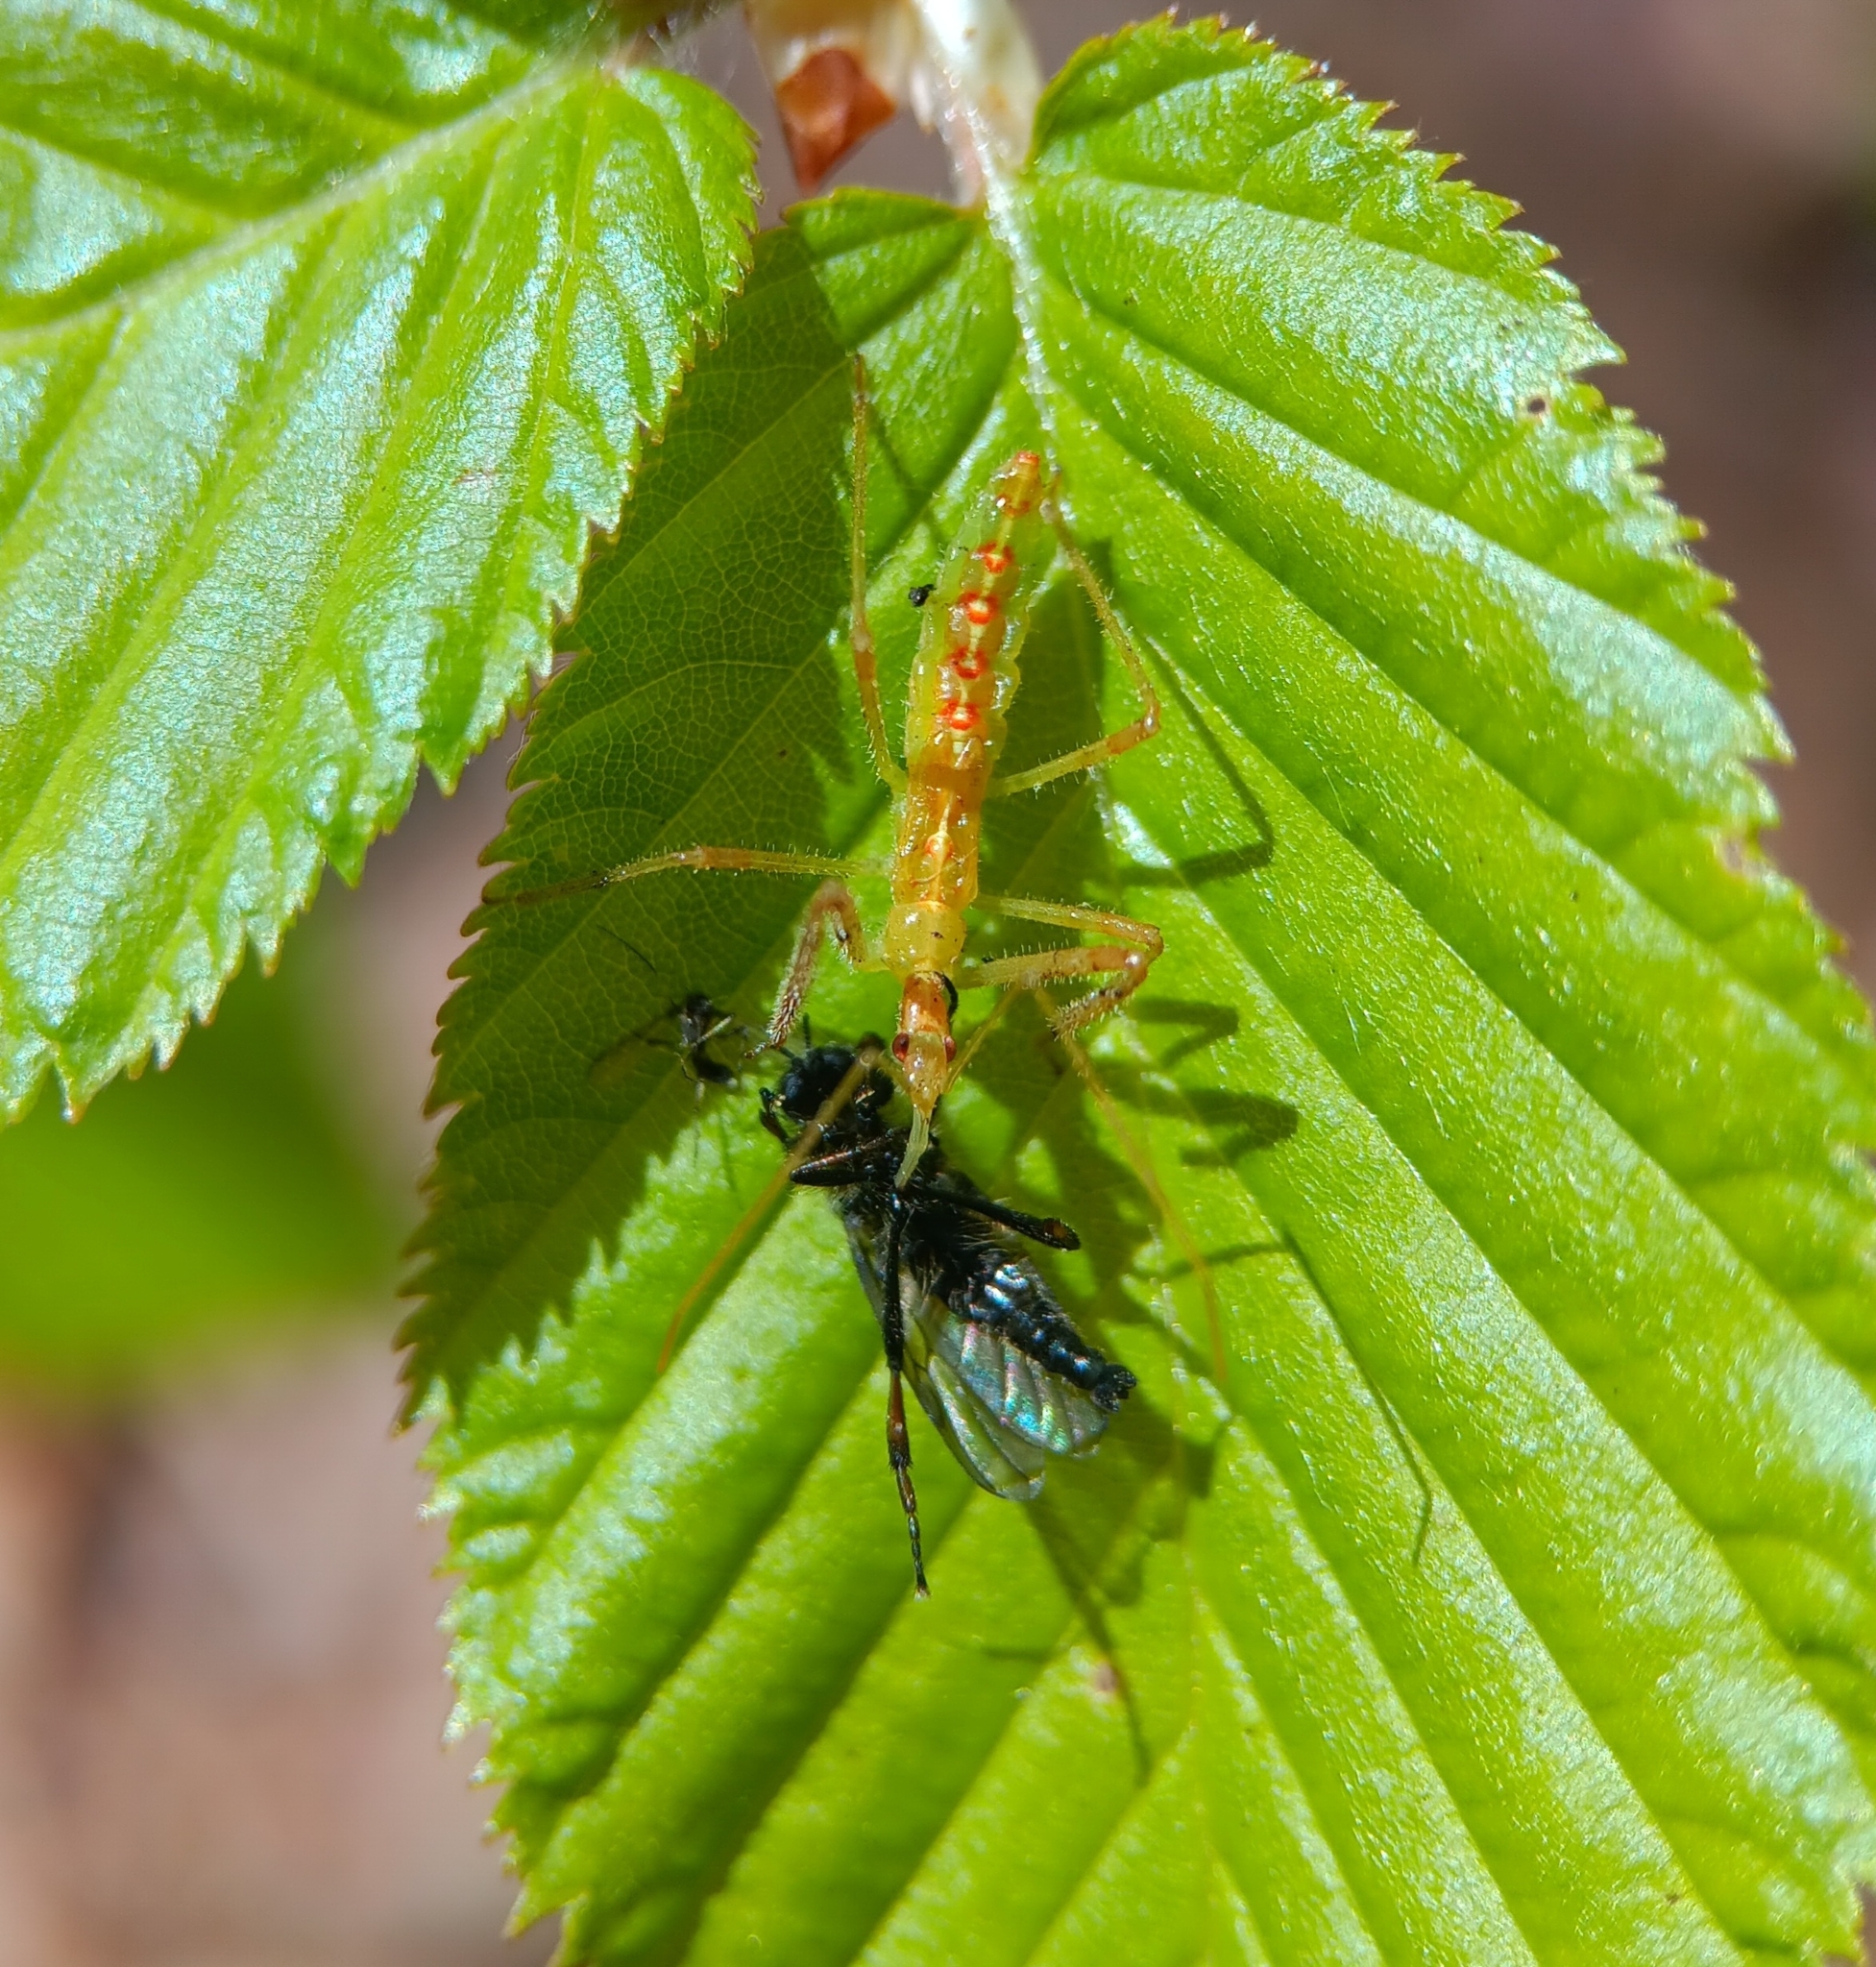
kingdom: Animalia
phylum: Arthropoda
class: Insecta
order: Hemiptera
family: Reduviidae
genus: Zelus
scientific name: Zelus luridus
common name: Pale green assassin bug
